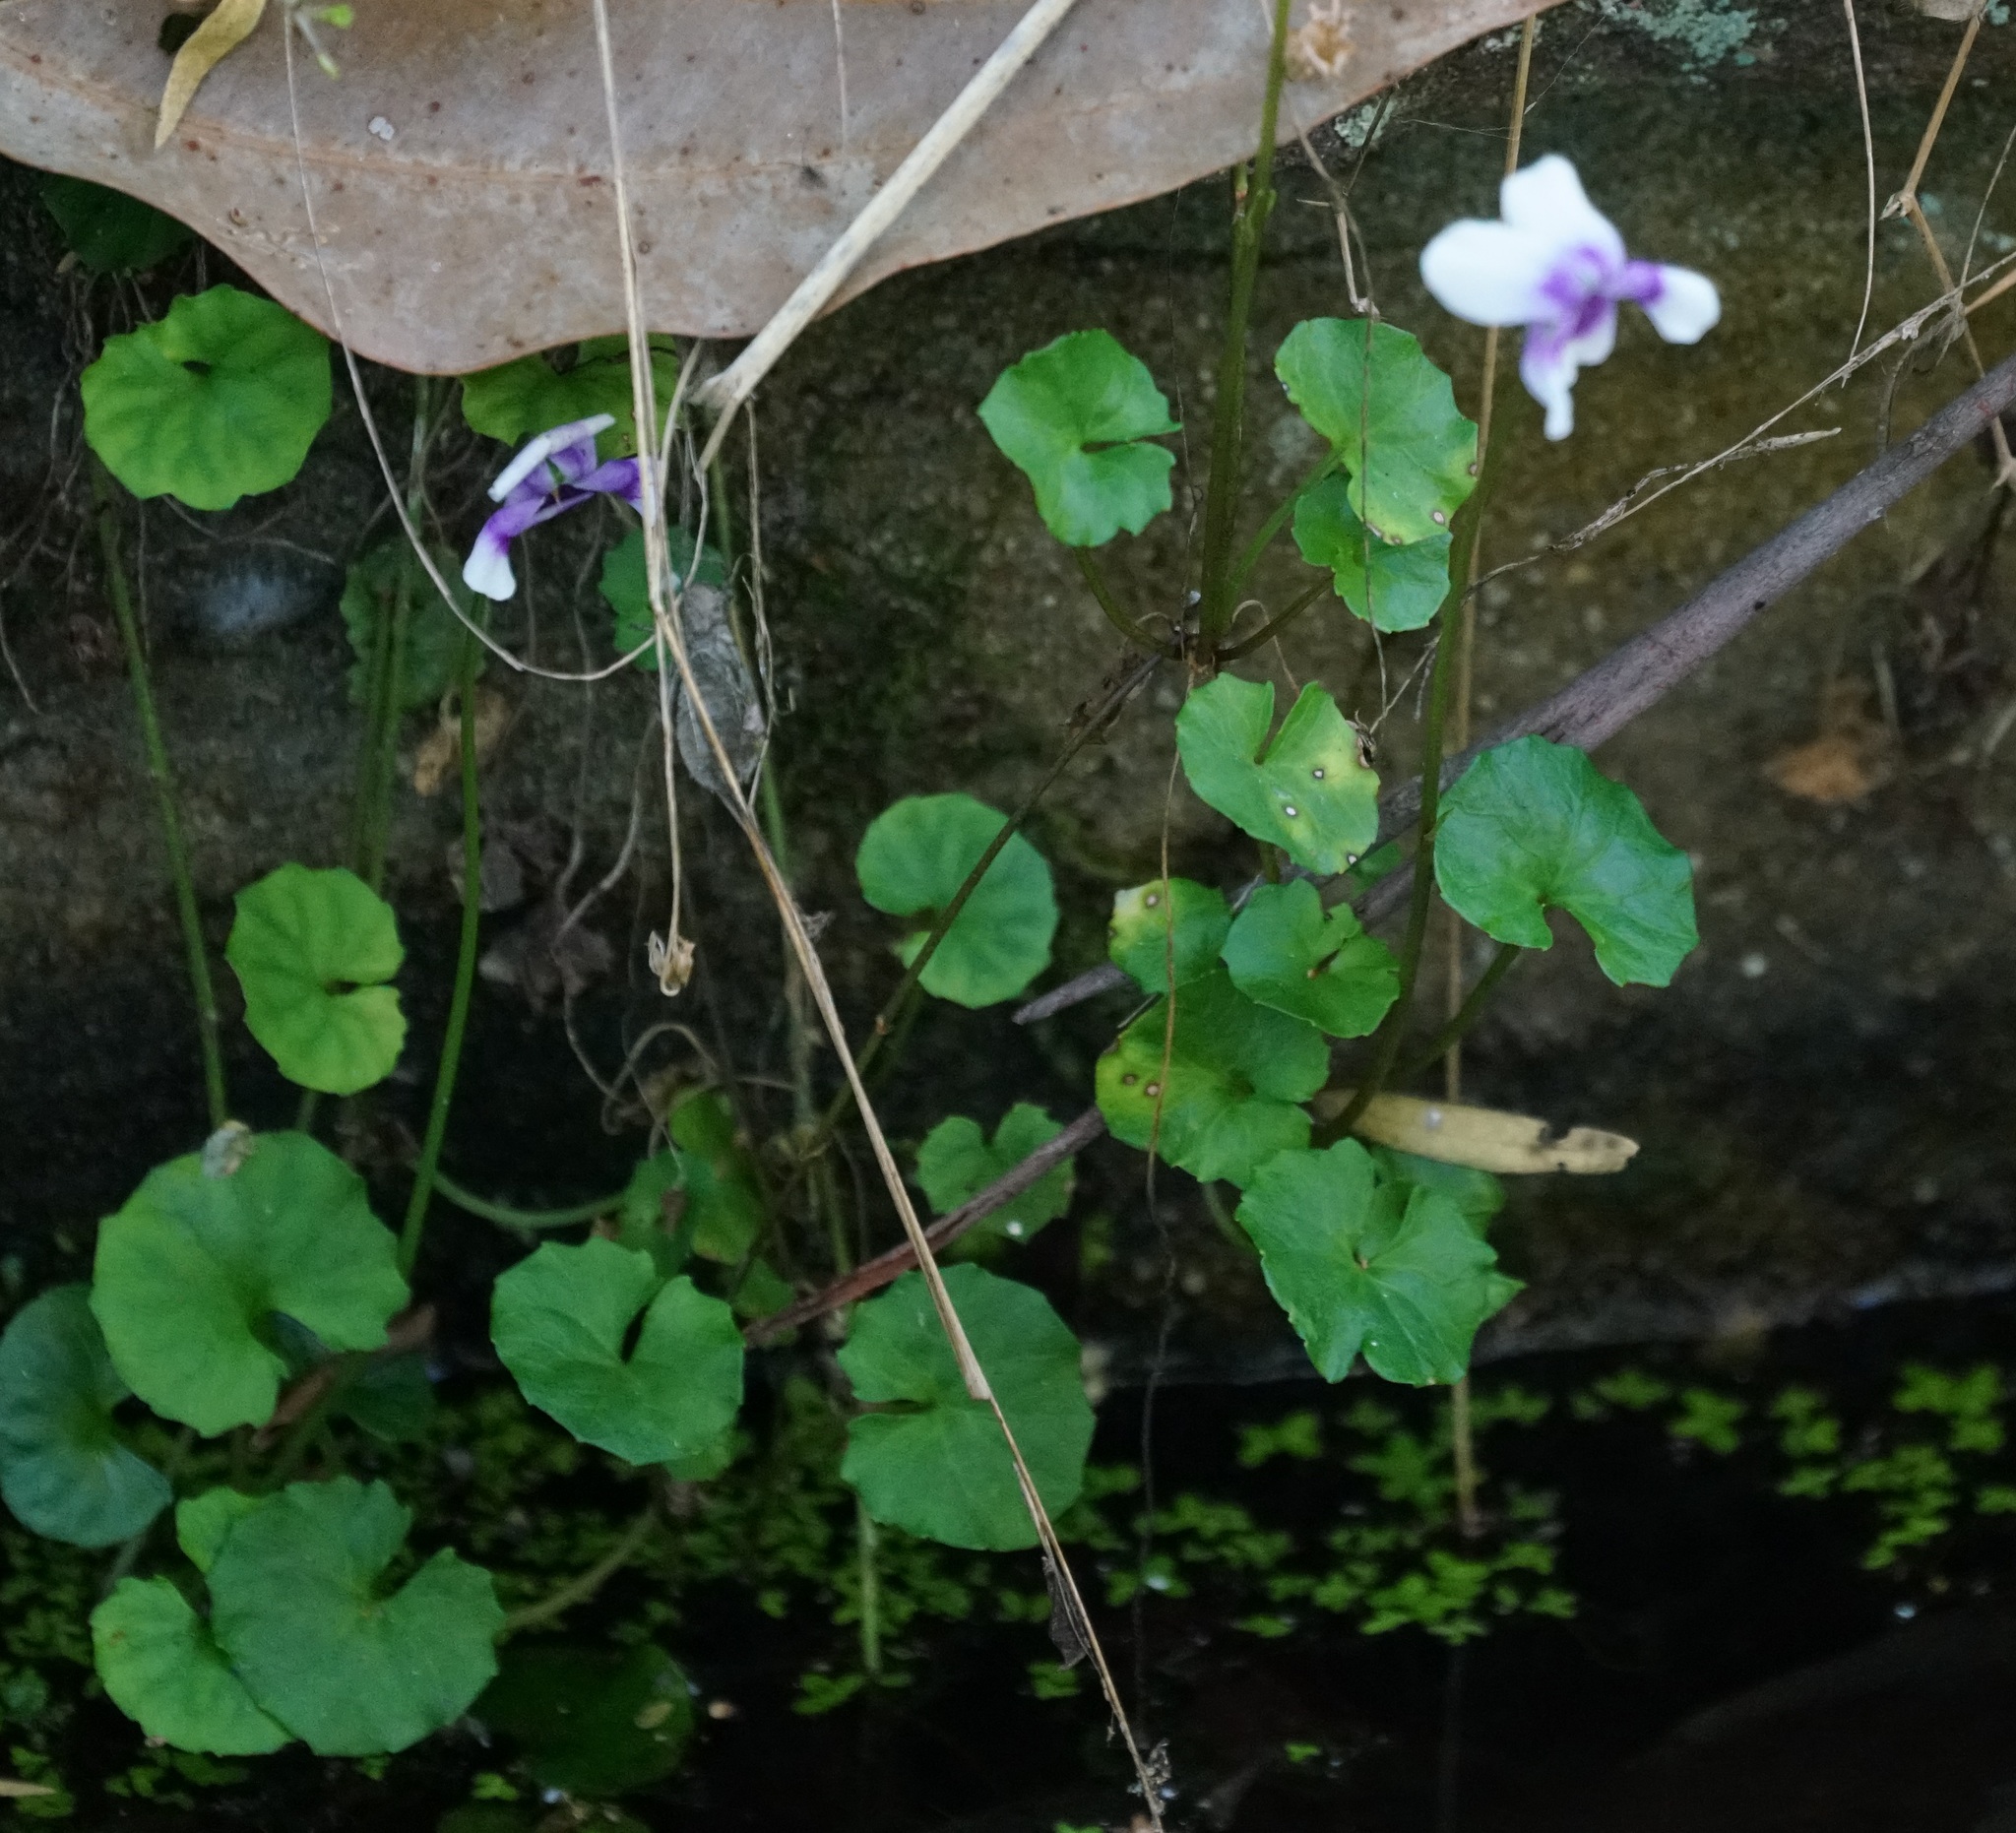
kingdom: Plantae
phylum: Tracheophyta
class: Magnoliopsida
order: Malpighiales
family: Violaceae
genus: Viola
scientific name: Viola banksii
